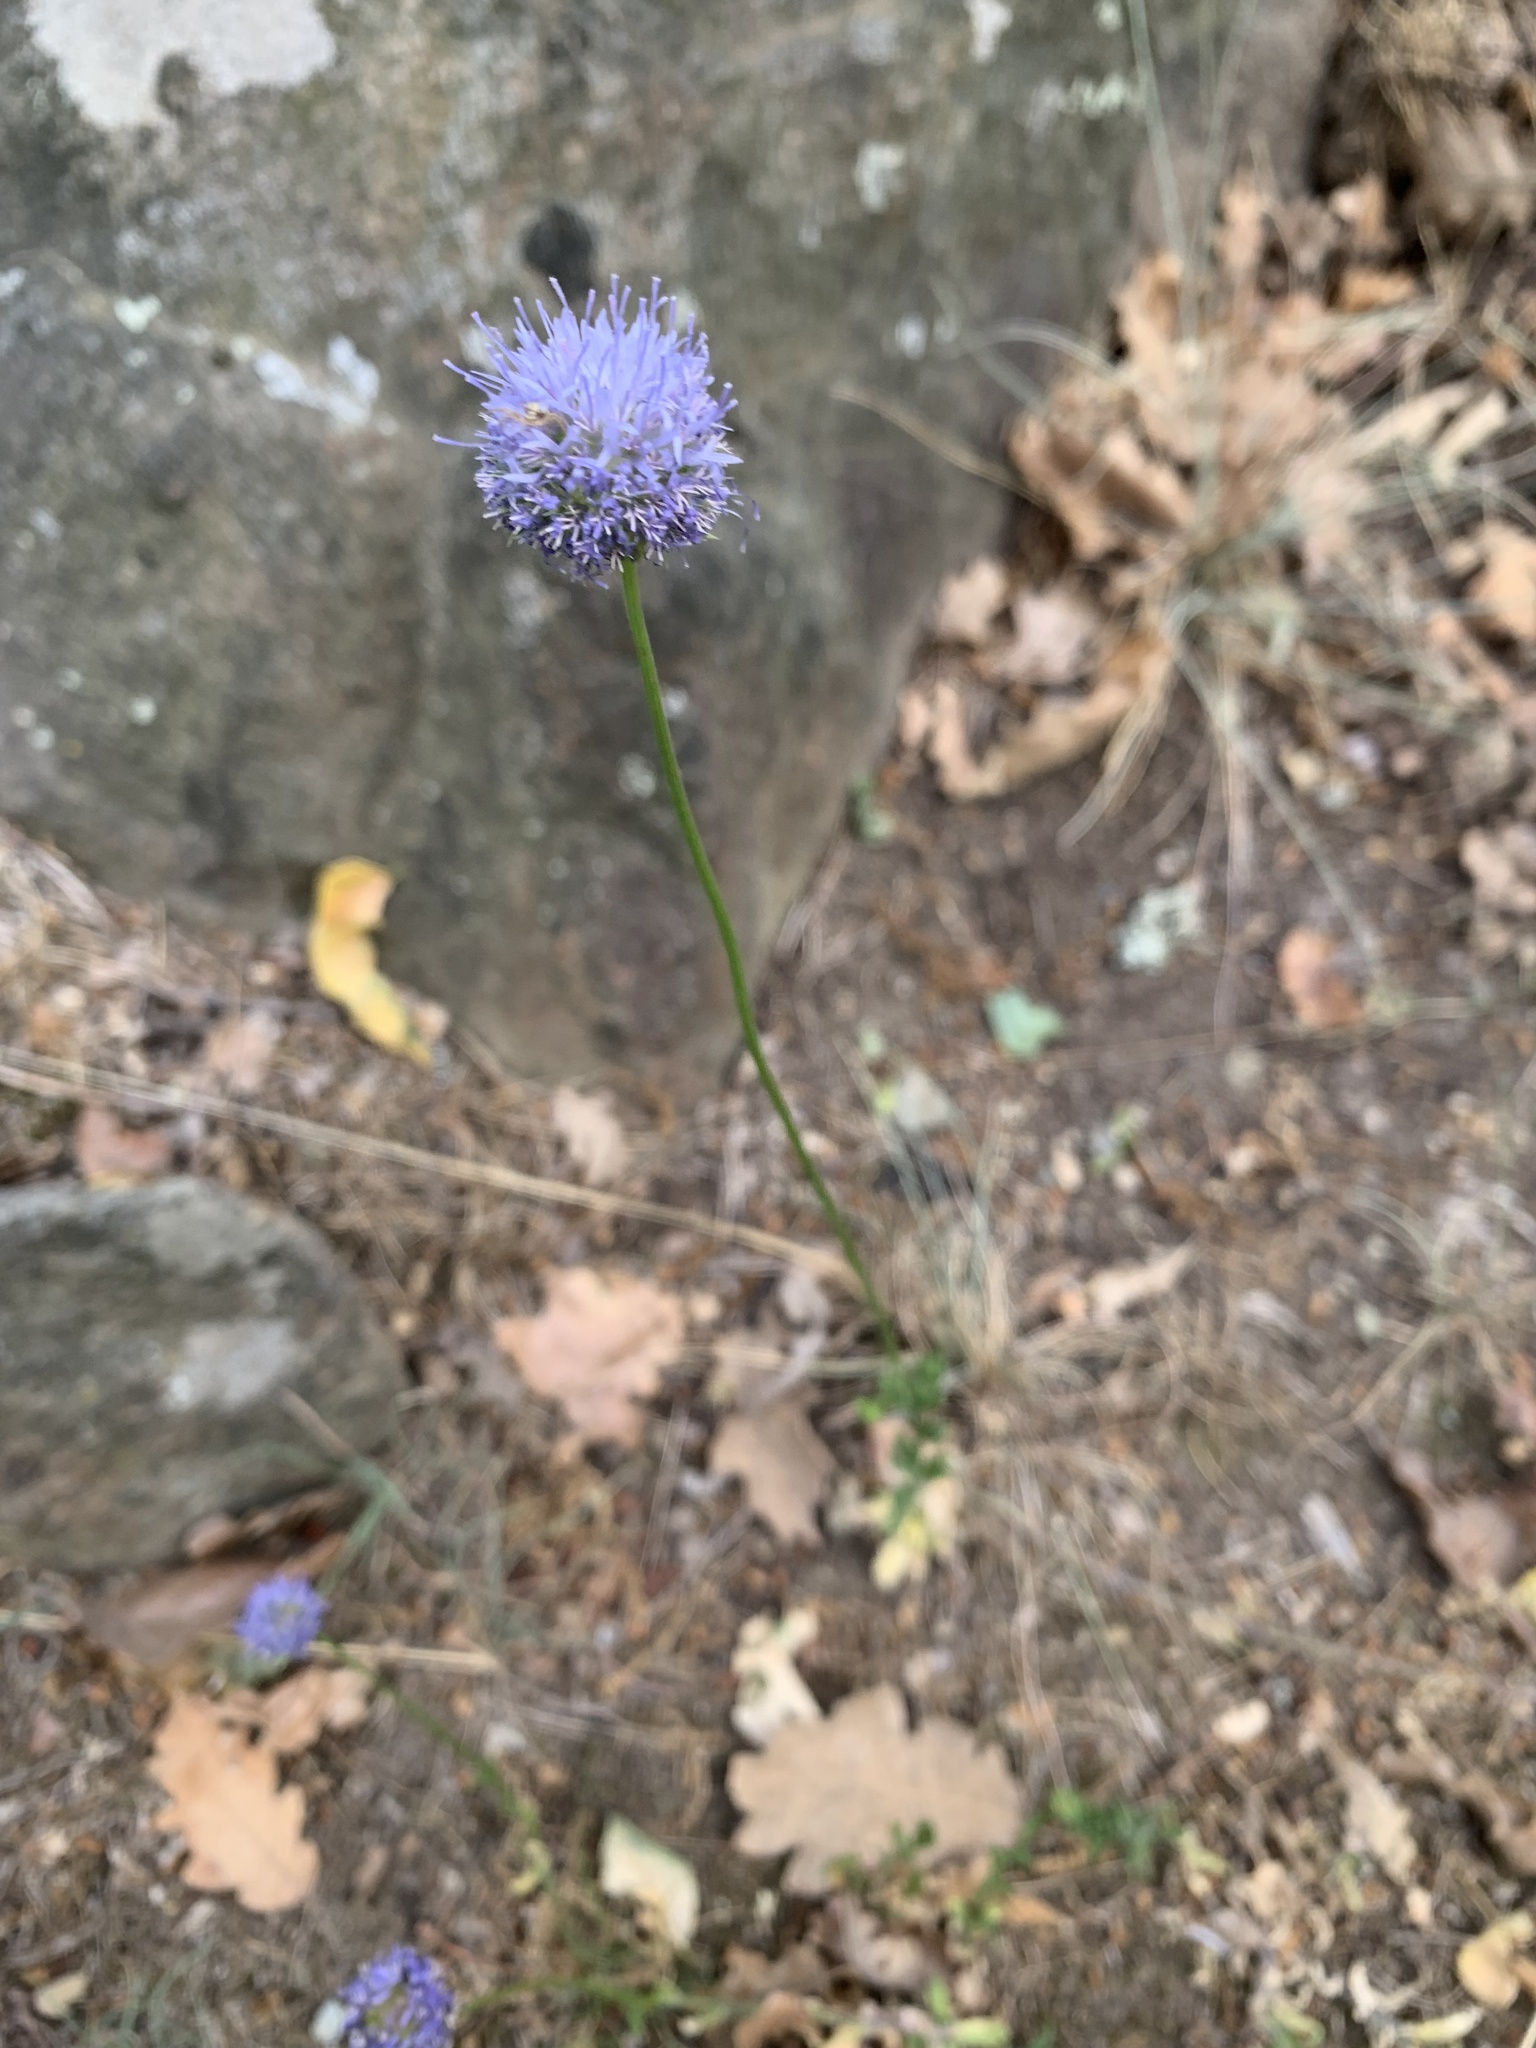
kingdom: Plantae
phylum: Tracheophyta
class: Magnoliopsida
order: Asterales
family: Campanulaceae
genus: Jasione
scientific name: Jasione montana
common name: Sheep's-bit
